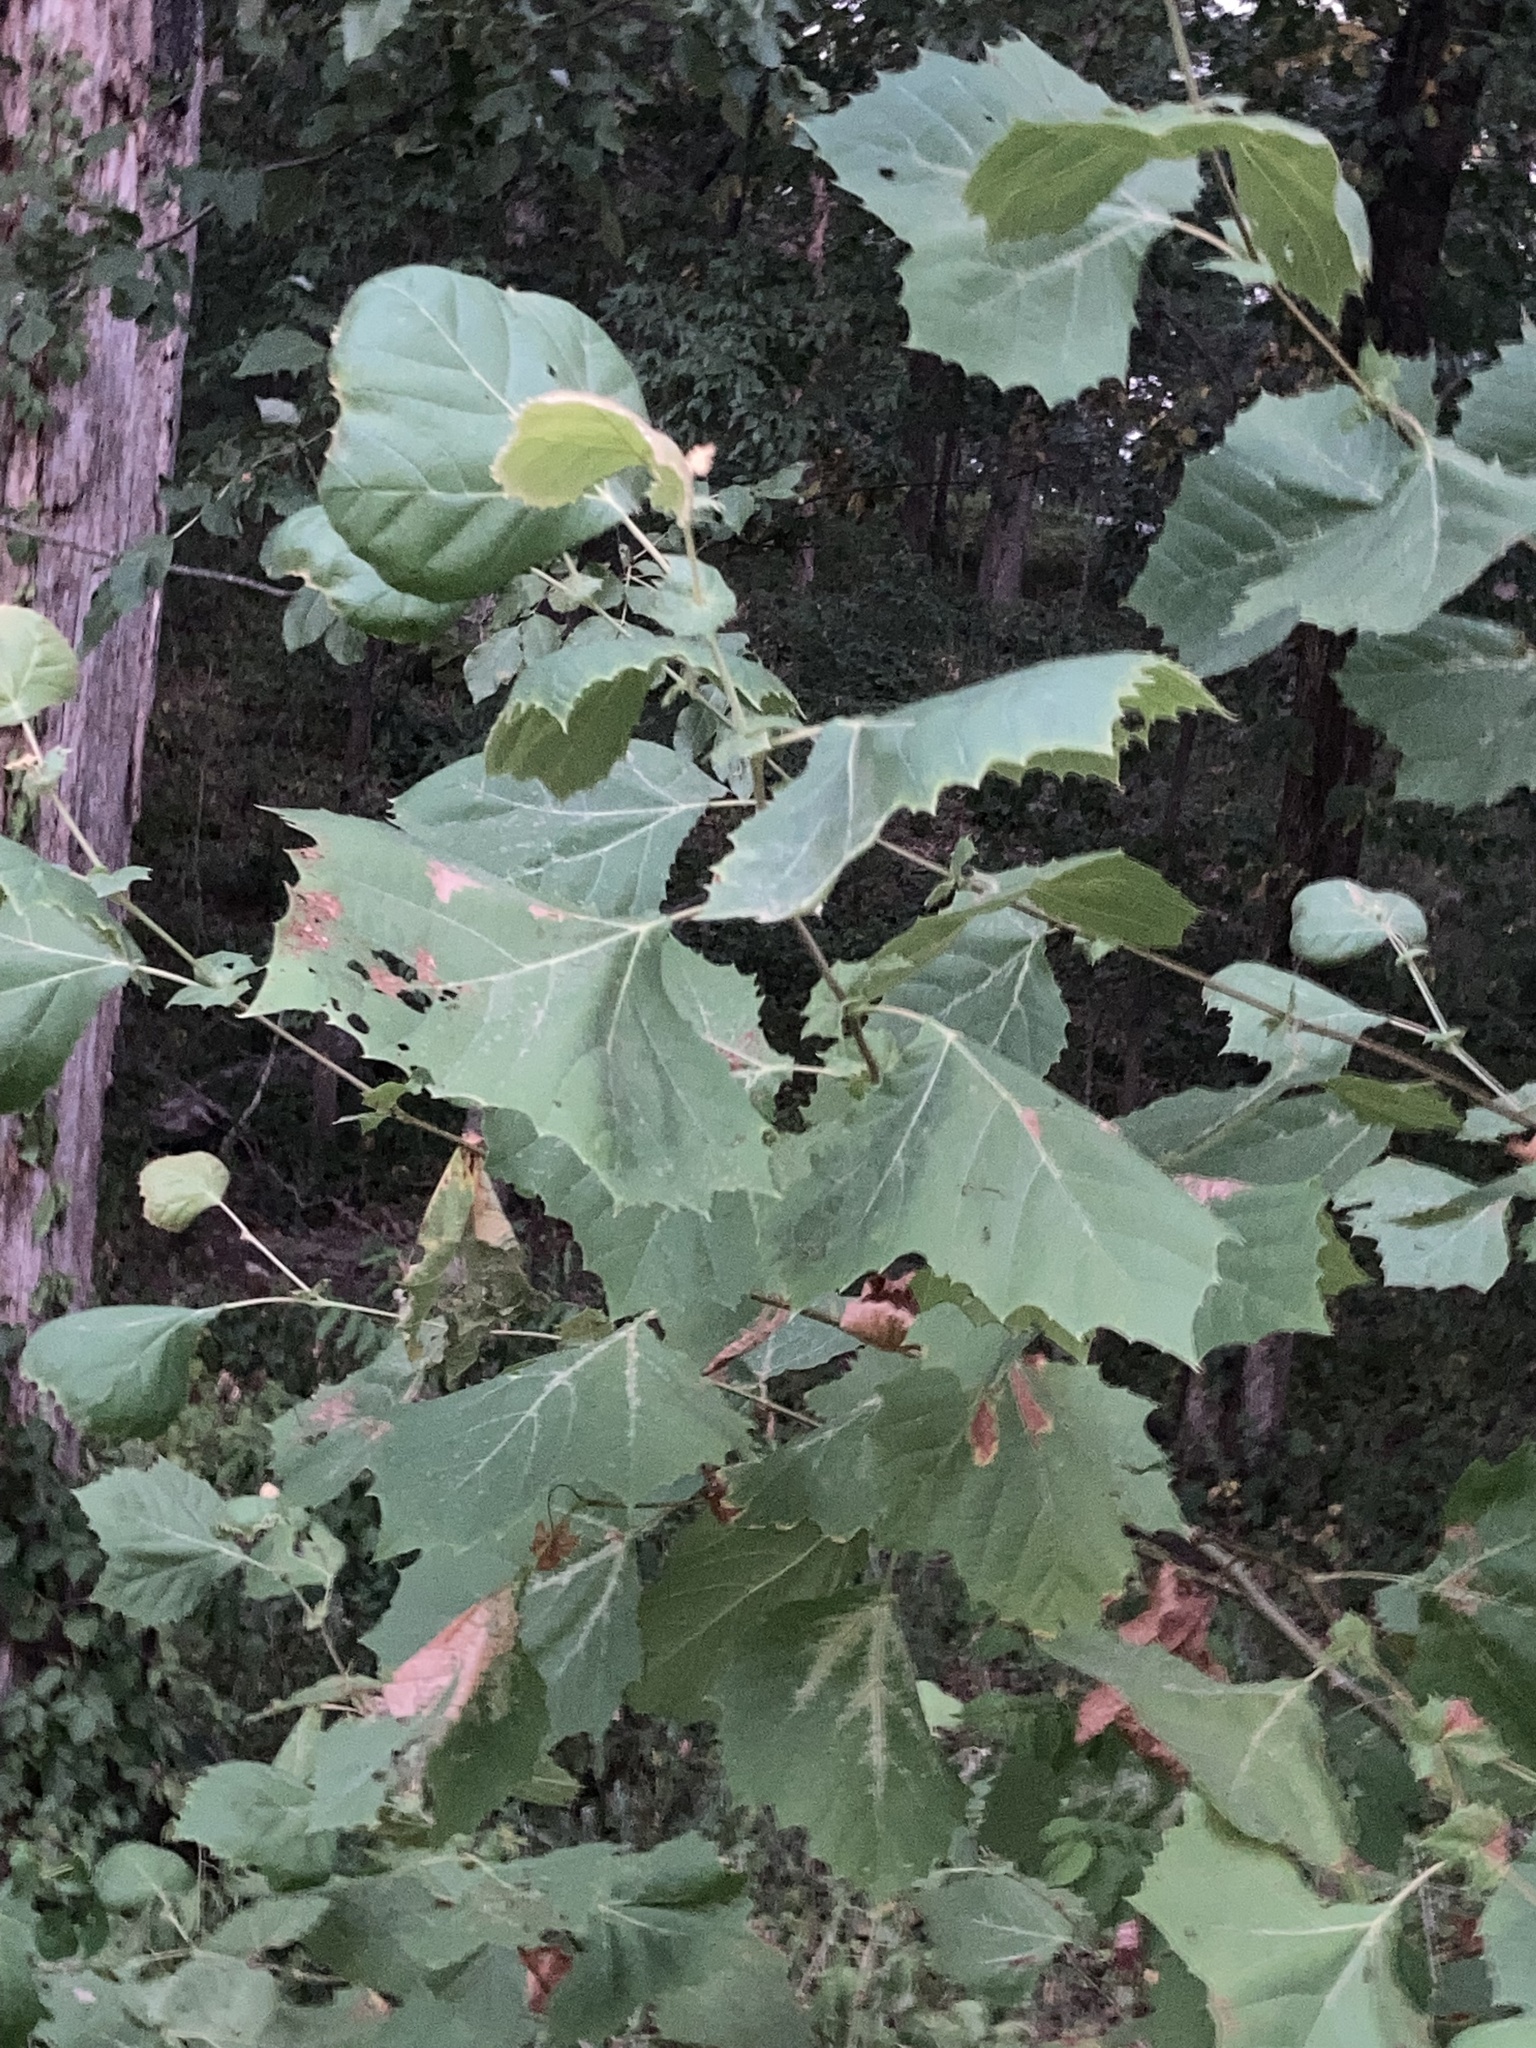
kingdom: Plantae
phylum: Tracheophyta
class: Magnoliopsida
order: Proteales
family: Platanaceae
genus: Platanus
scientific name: Platanus occidentalis
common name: American sycamore
